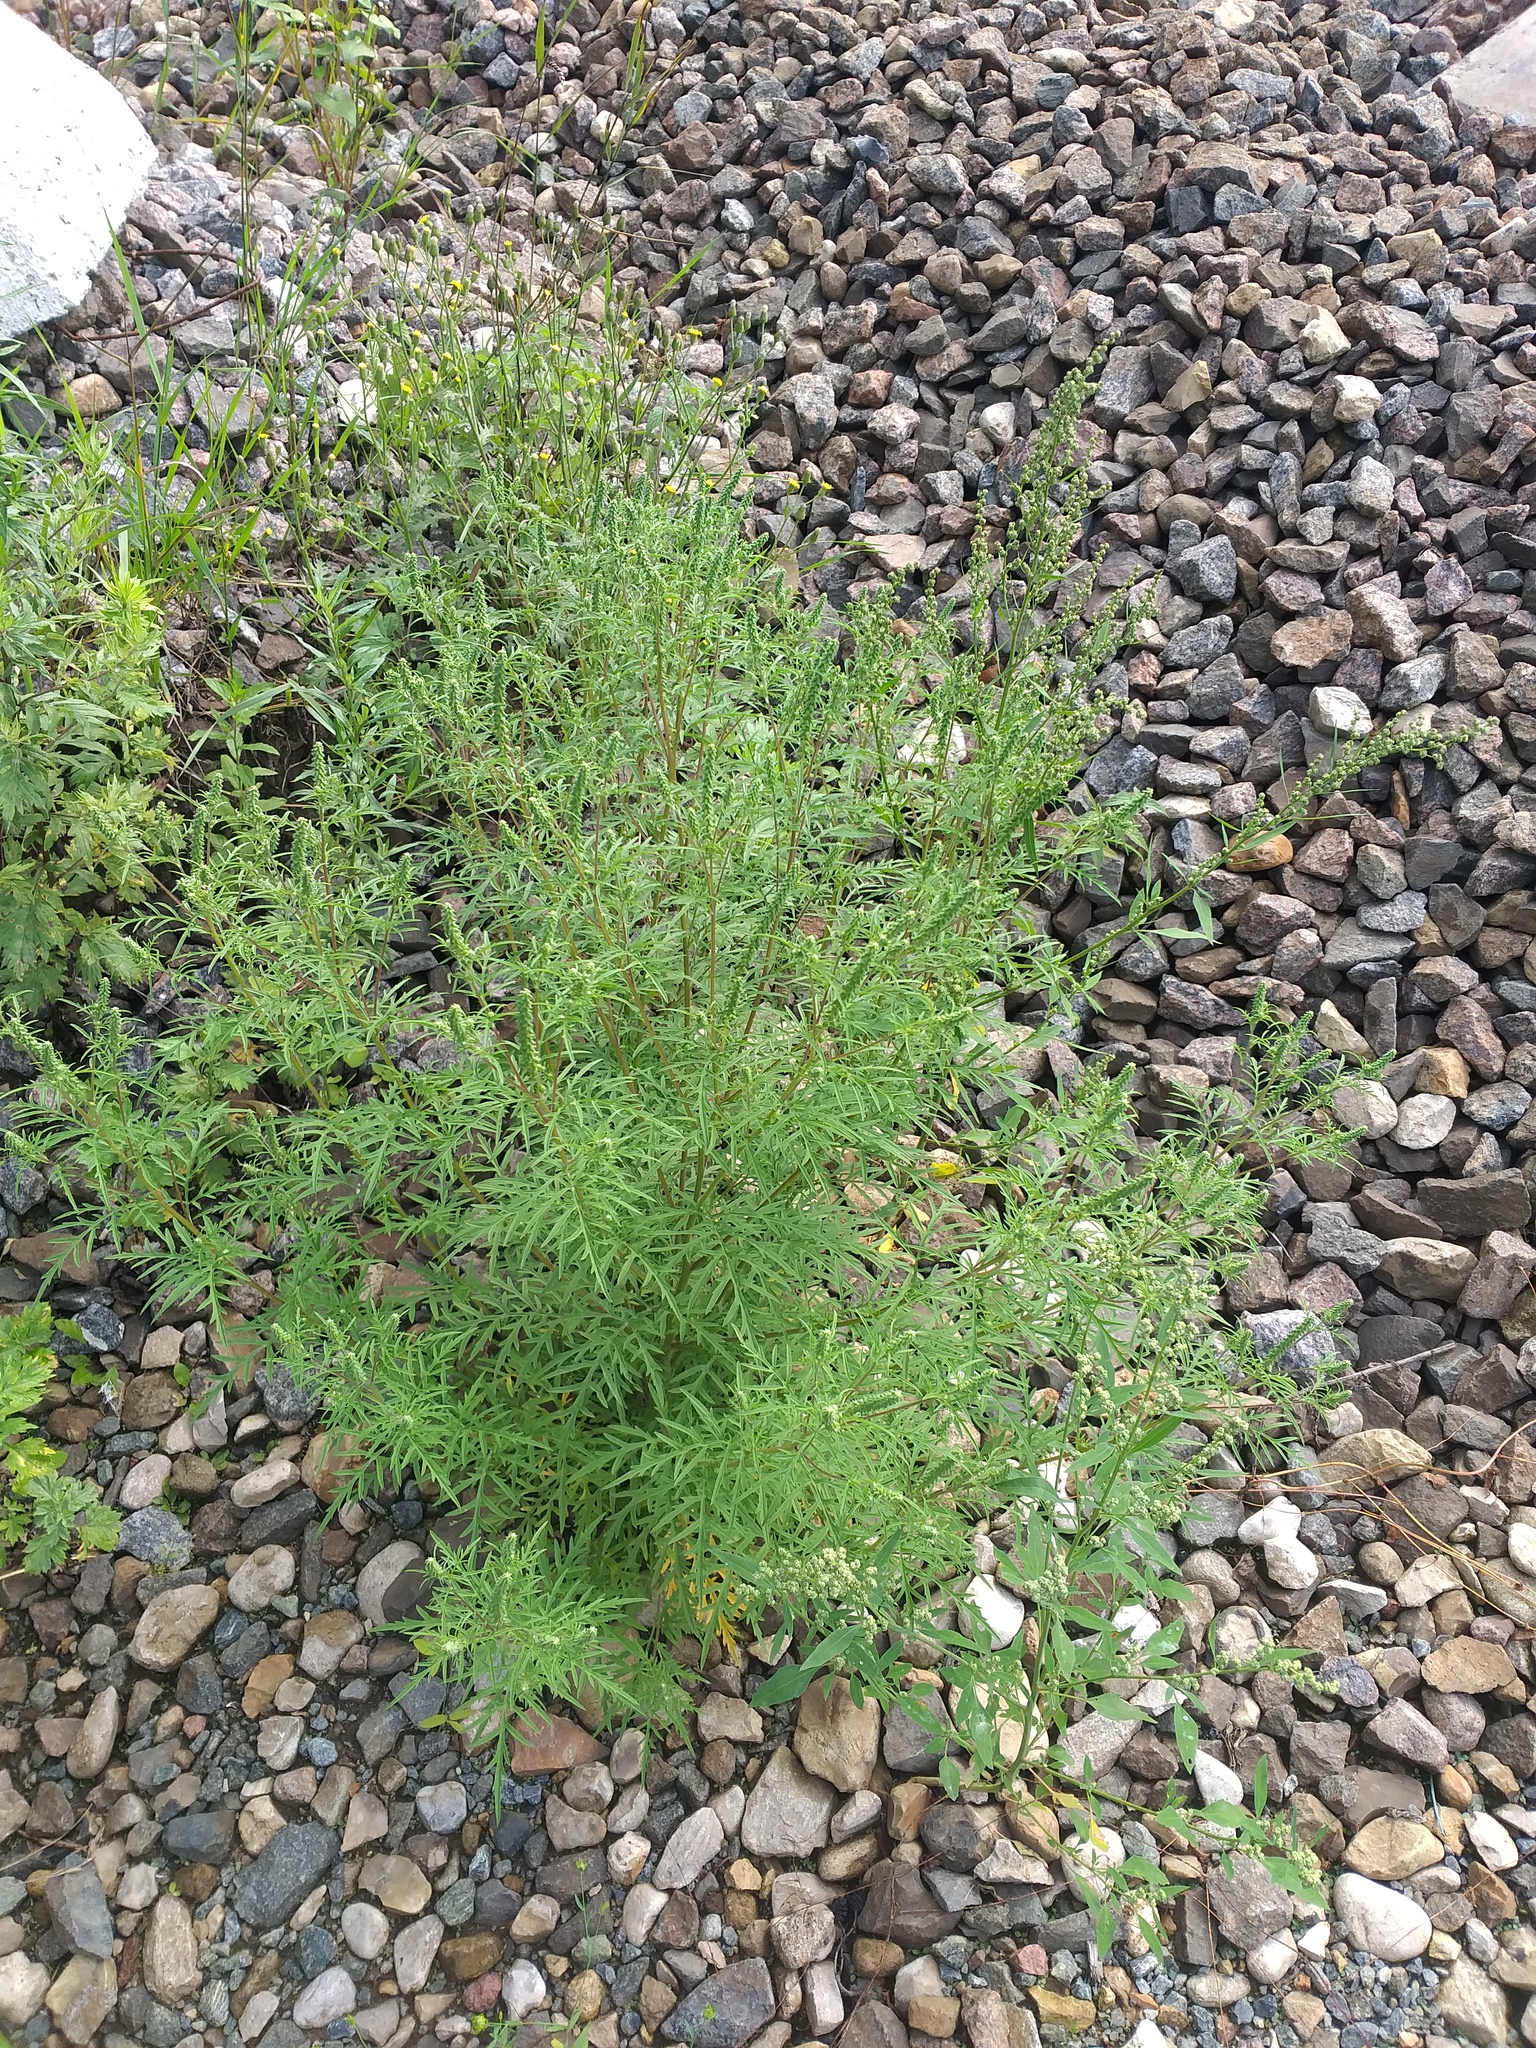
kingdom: Plantae
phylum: Tracheophyta
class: Magnoliopsida
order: Asterales
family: Asteraceae
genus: Ambrosia
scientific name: Ambrosia artemisiifolia
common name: Annual ragweed
